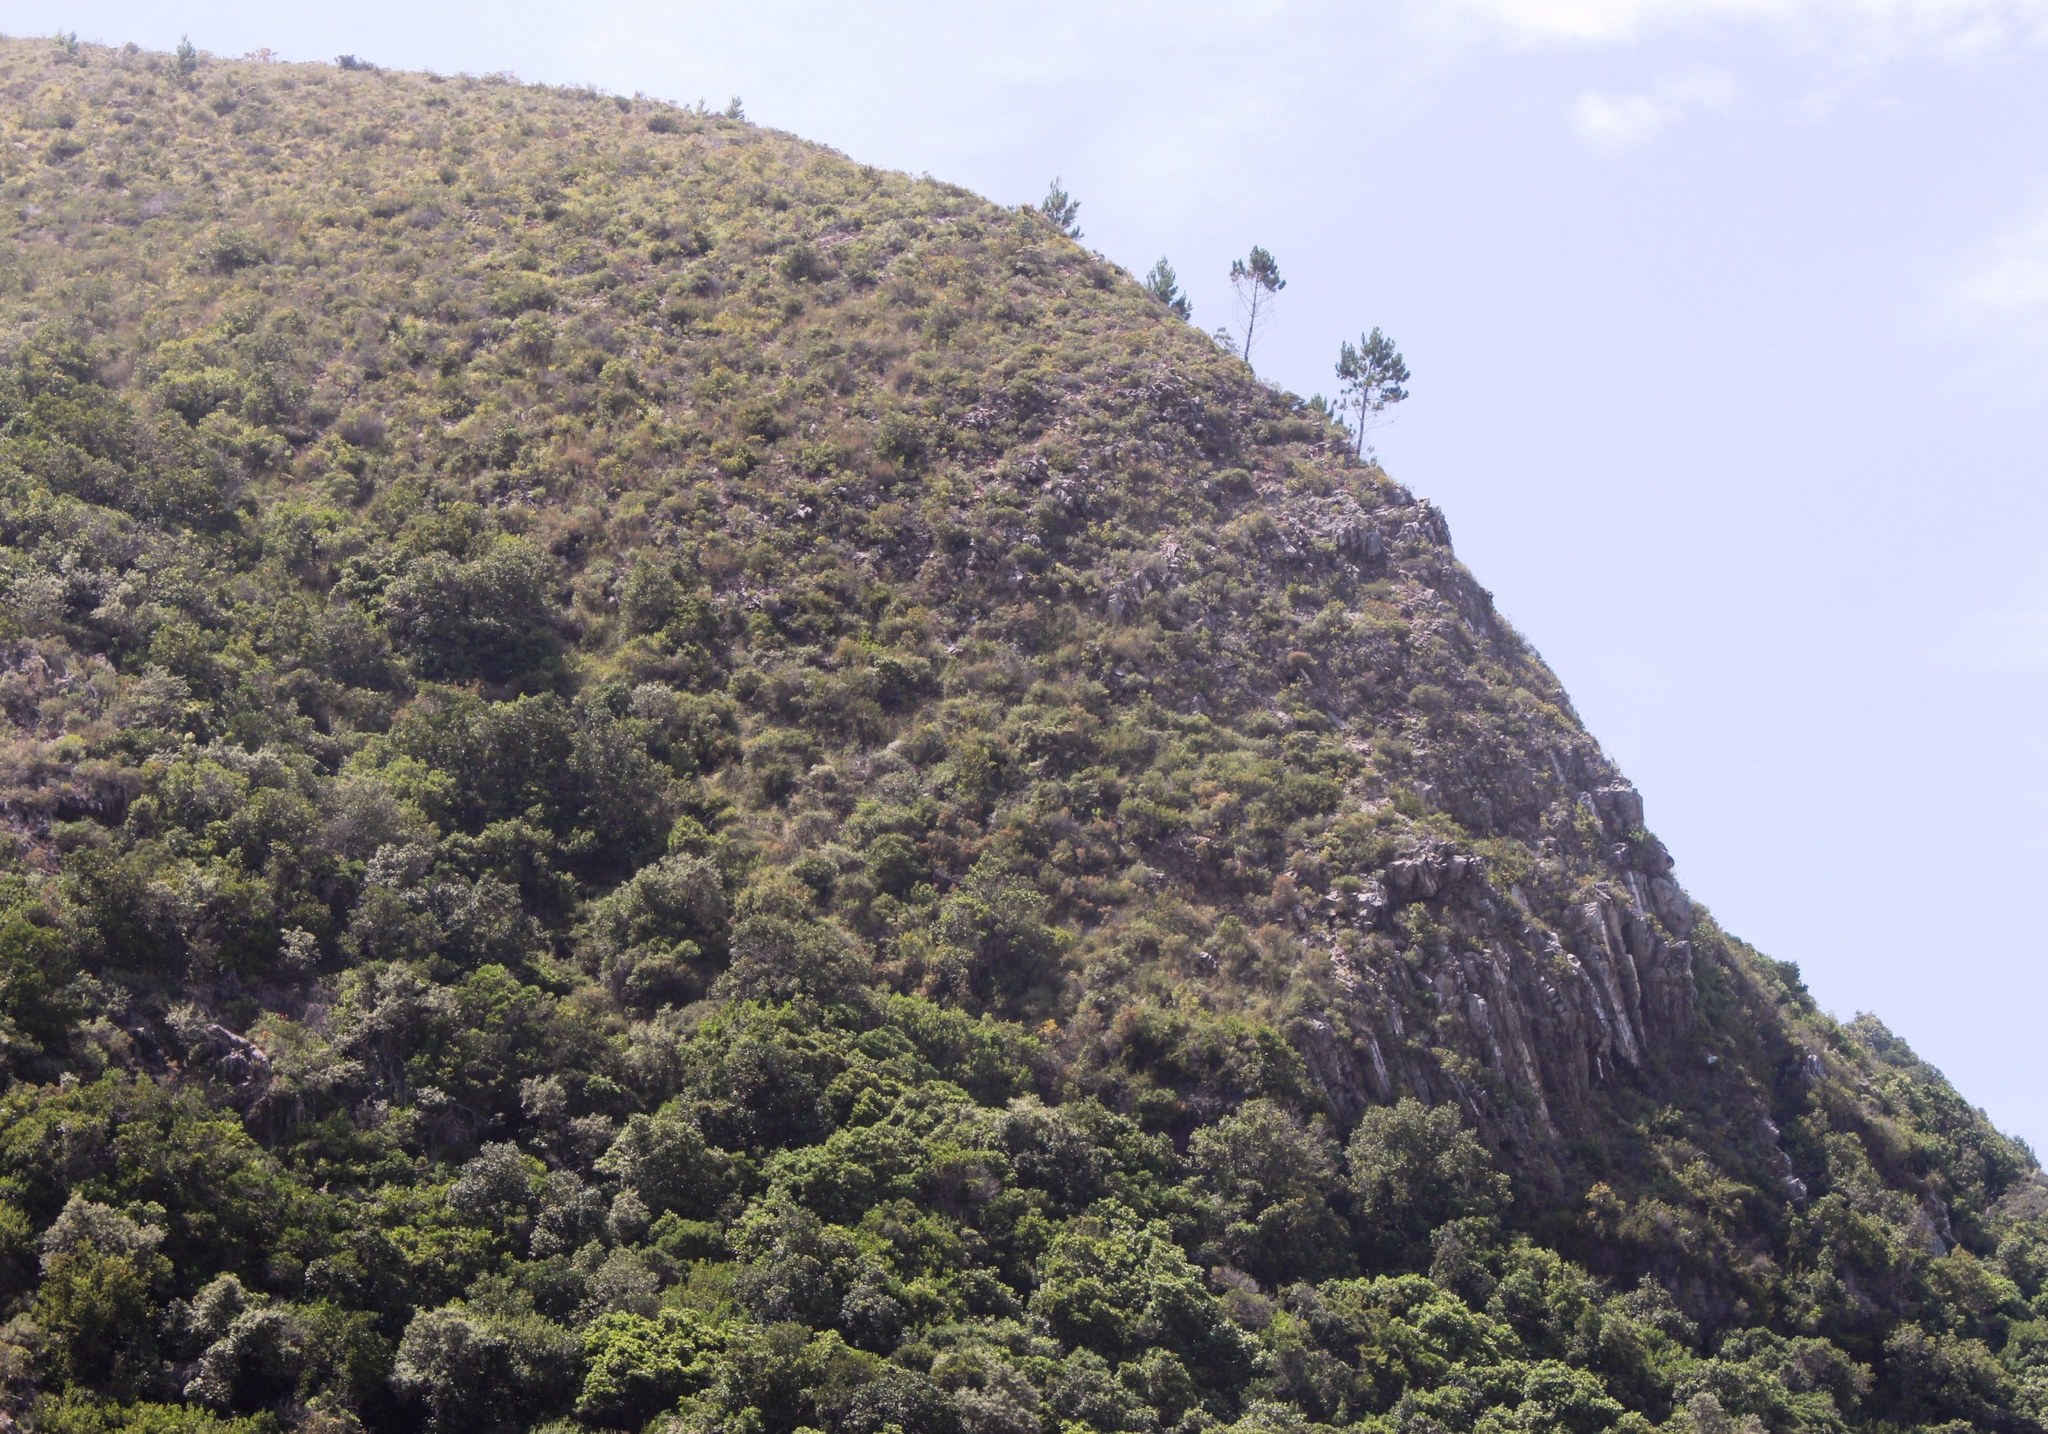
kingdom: Plantae
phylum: Tracheophyta
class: Pinopsida
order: Pinales
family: Pinaceae
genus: Pinus
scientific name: Pinus radiata
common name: Monterey pine
